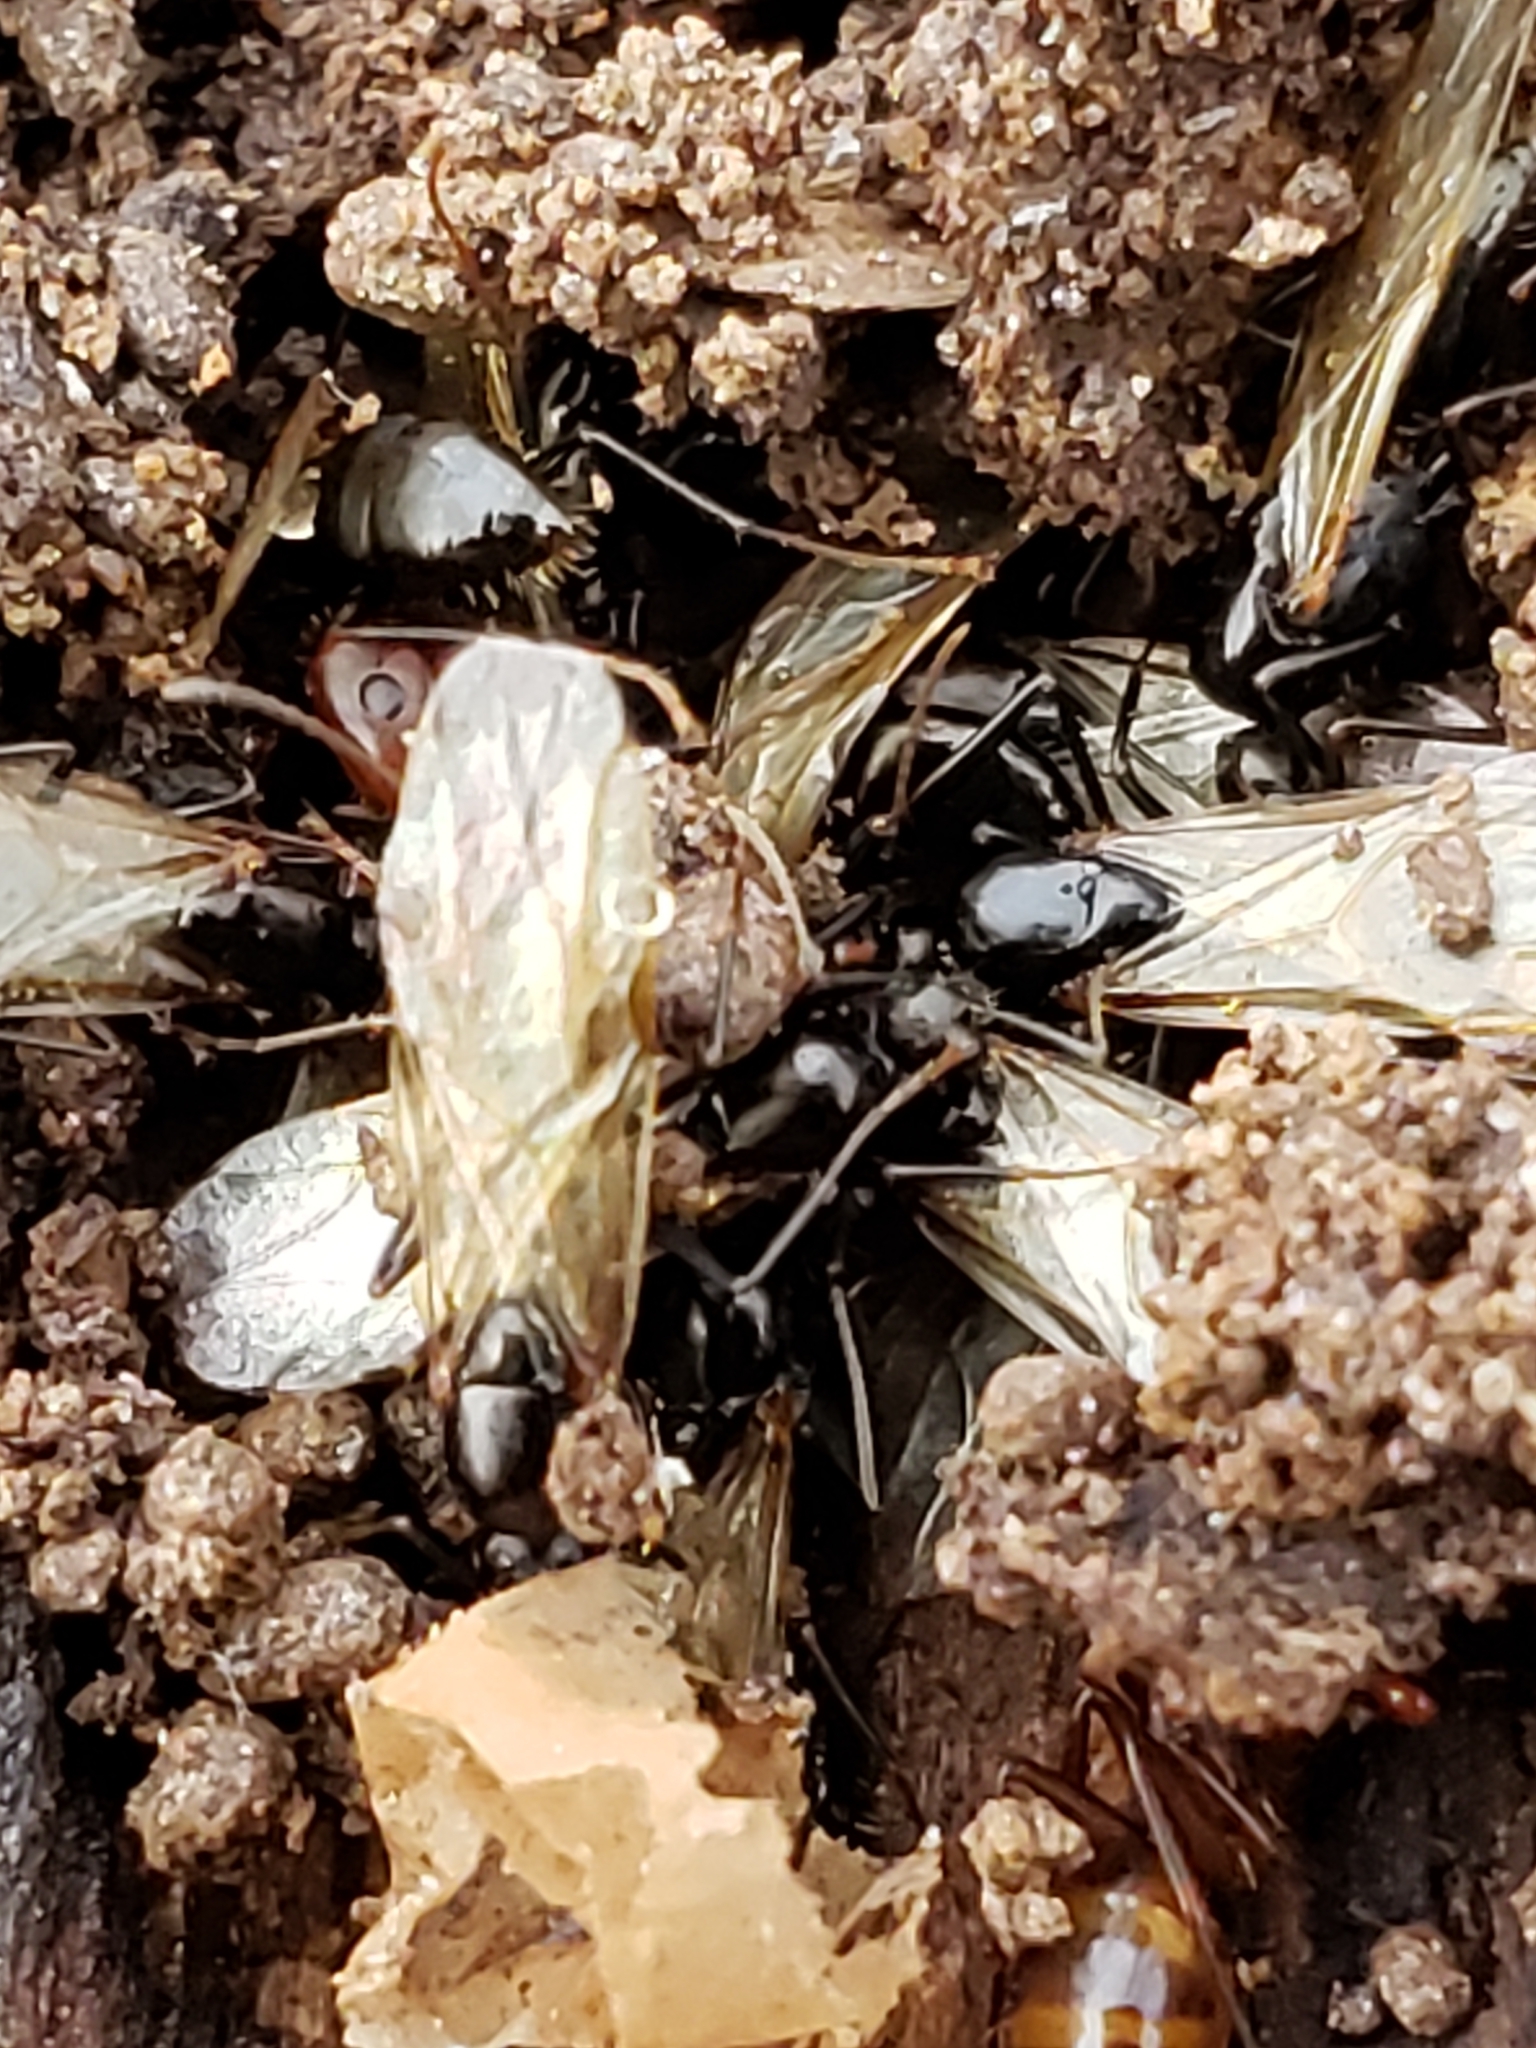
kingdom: Animalia
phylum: Arthropoda
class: Insecta
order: Hymenoptera
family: Formicidae
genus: Camponotus
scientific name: Camponotus subbarbatus
